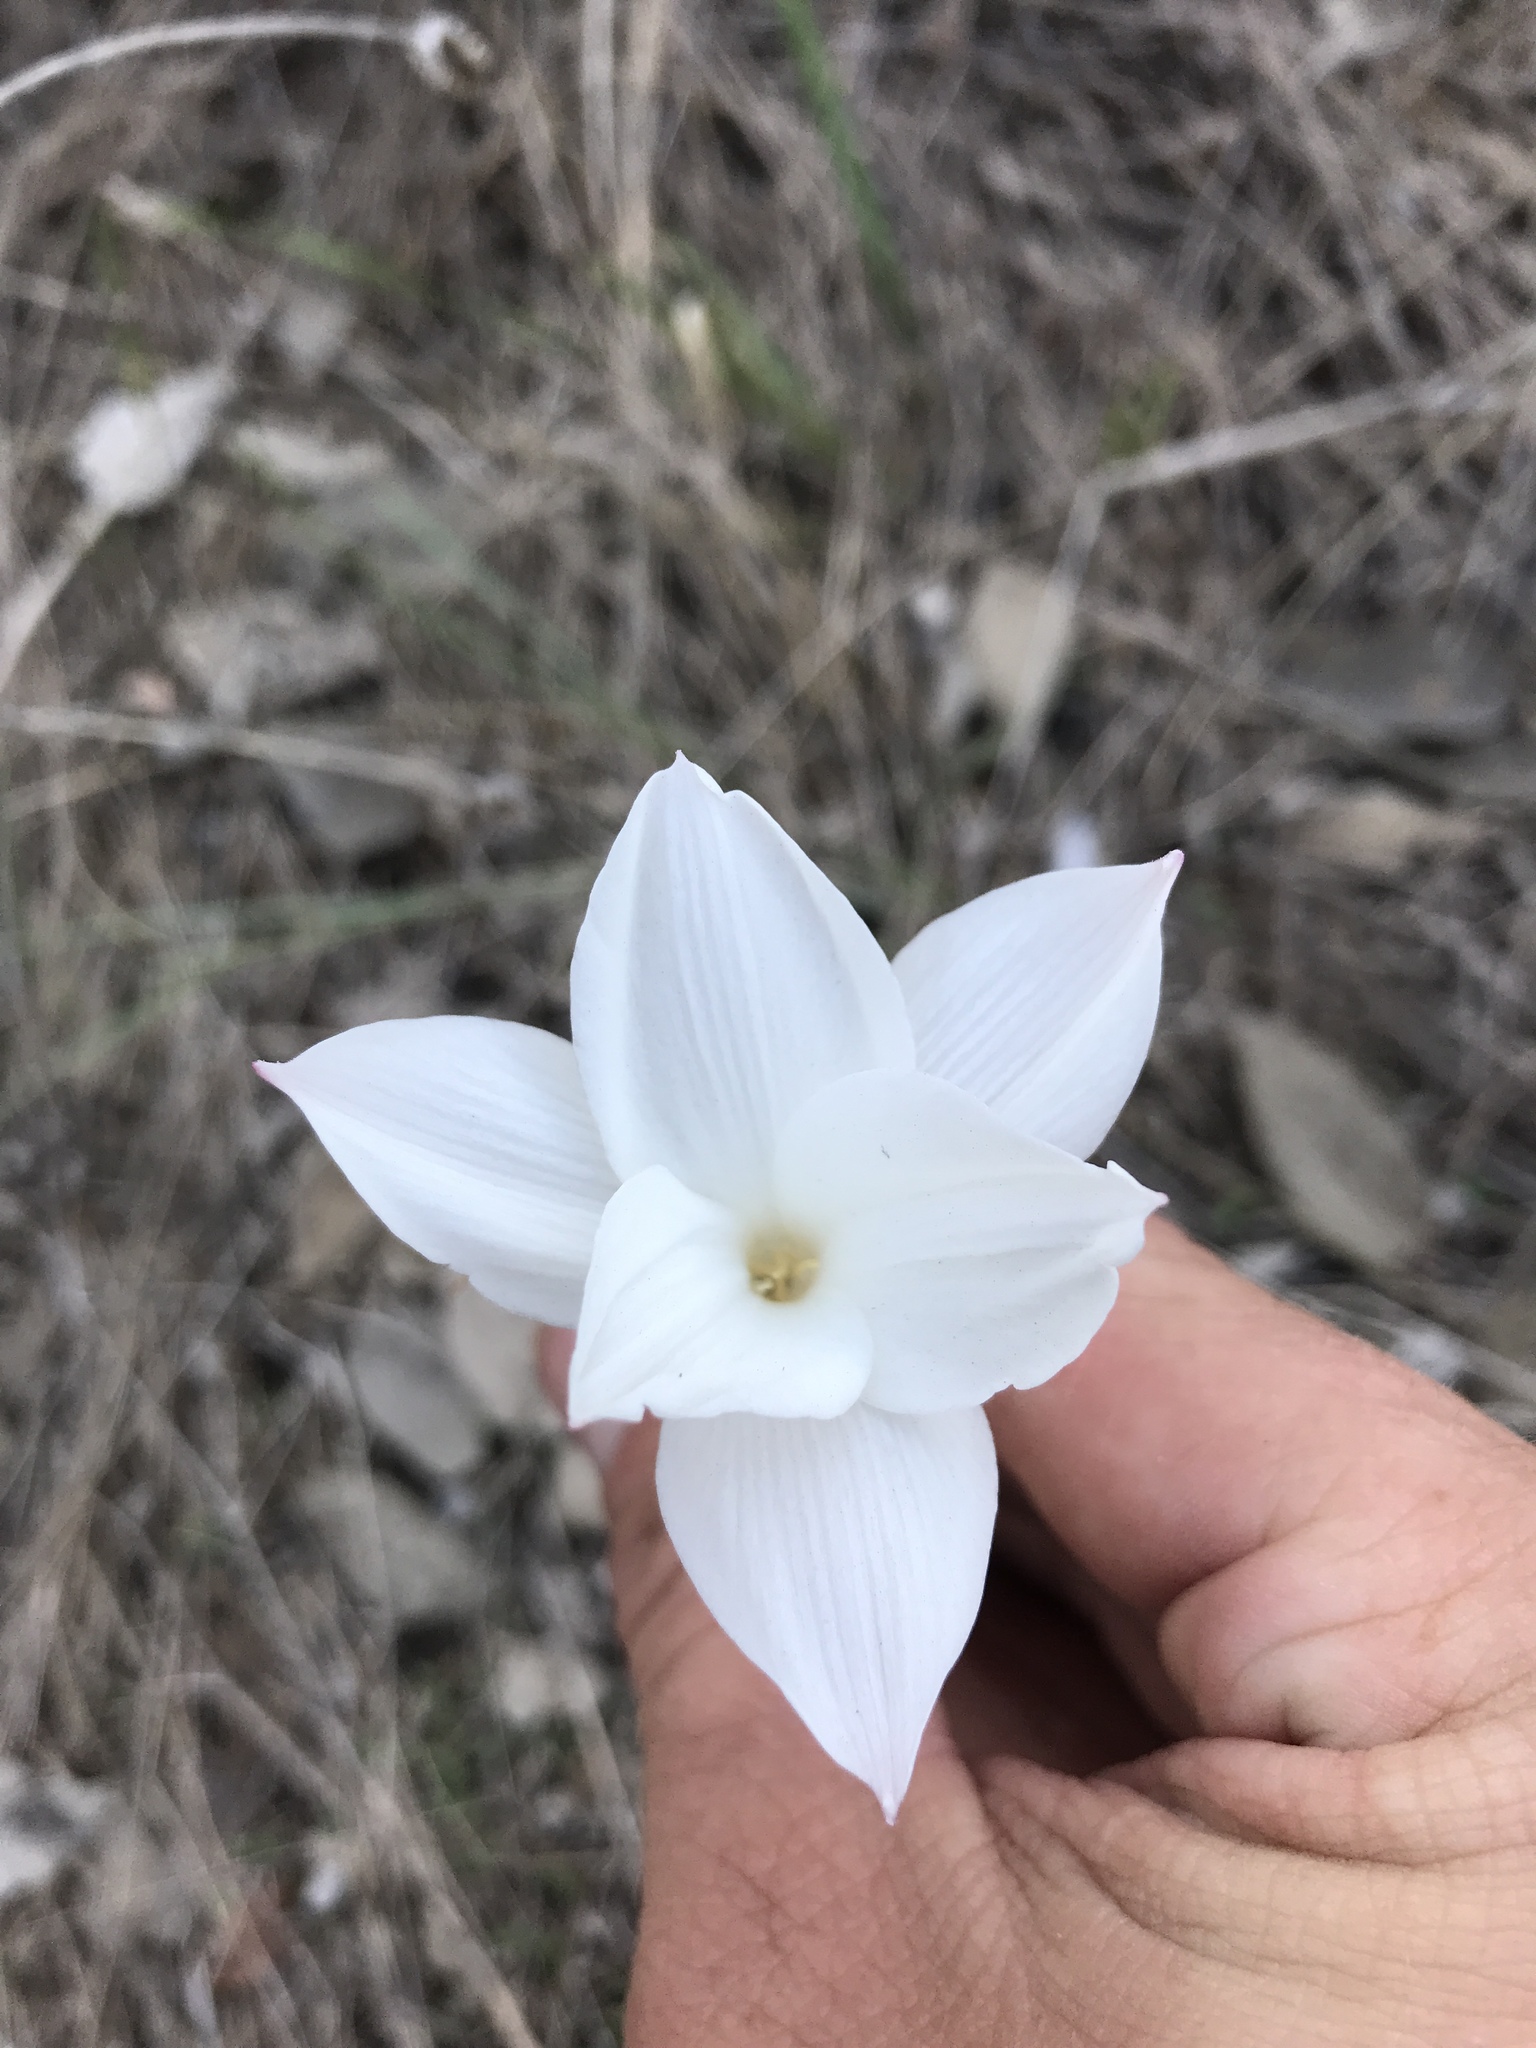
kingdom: Plantae
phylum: Tracheophyta
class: Liliopsida
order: Asparagales
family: Amaryllidaceae
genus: Zephyranthes
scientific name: Zephyranthes drummondii
